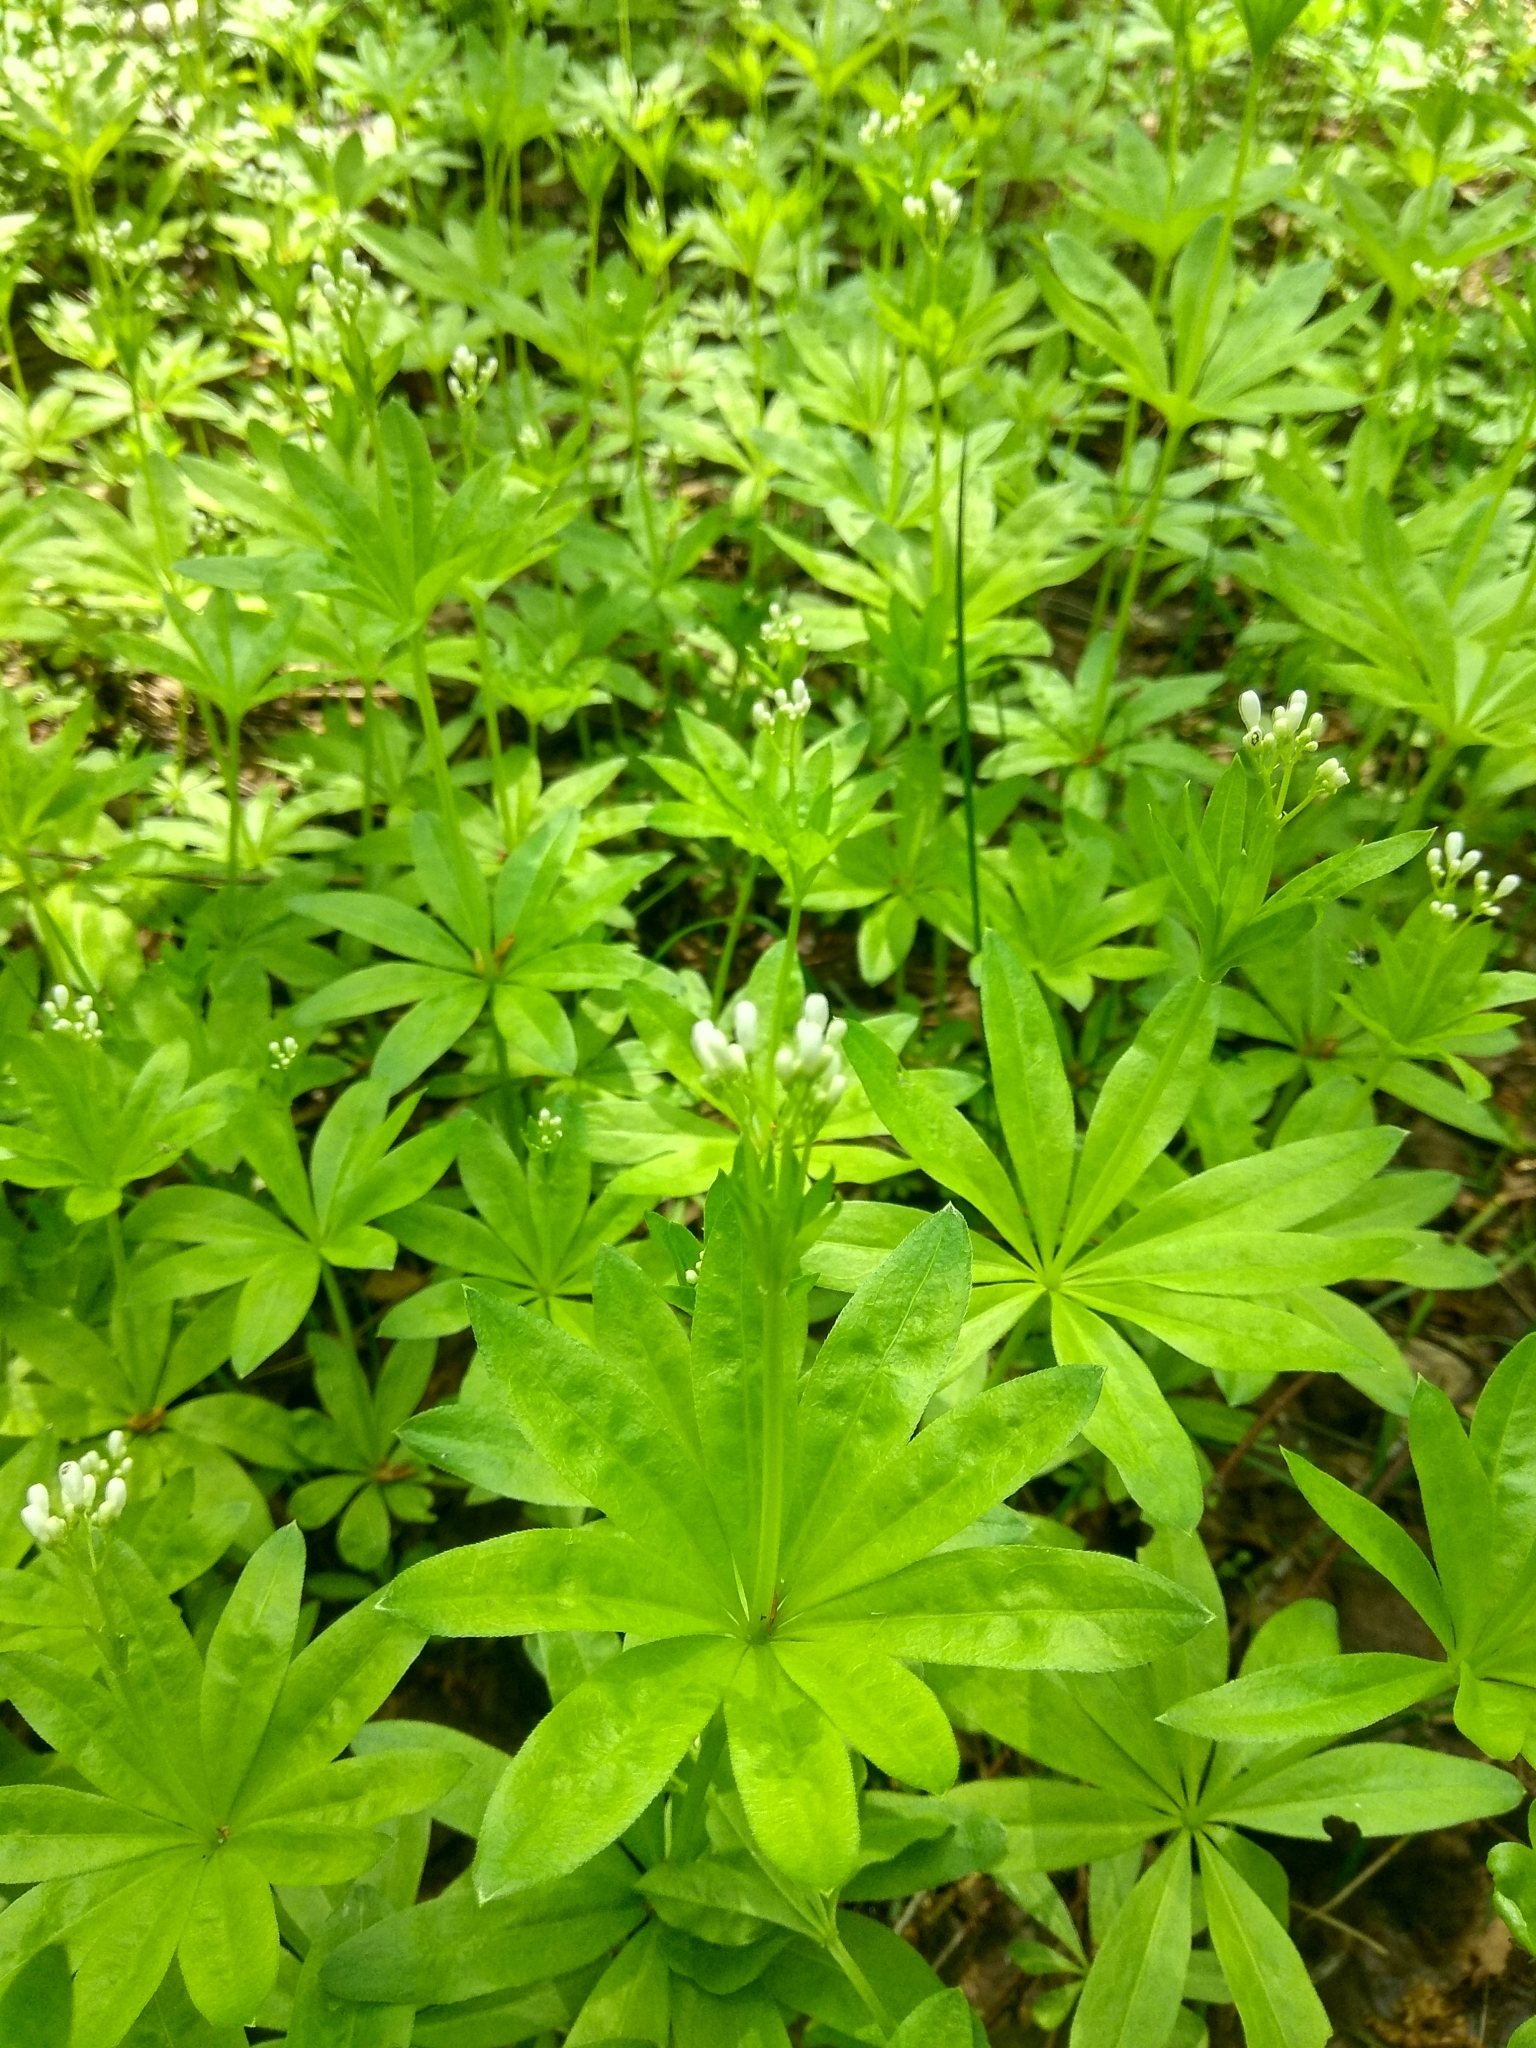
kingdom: Plantae
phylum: Tracheophyta
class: Magnoliopsida
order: Gentianales
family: Rubiaceae
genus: Galium
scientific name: Galium odoratum
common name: Sweet woodruff
